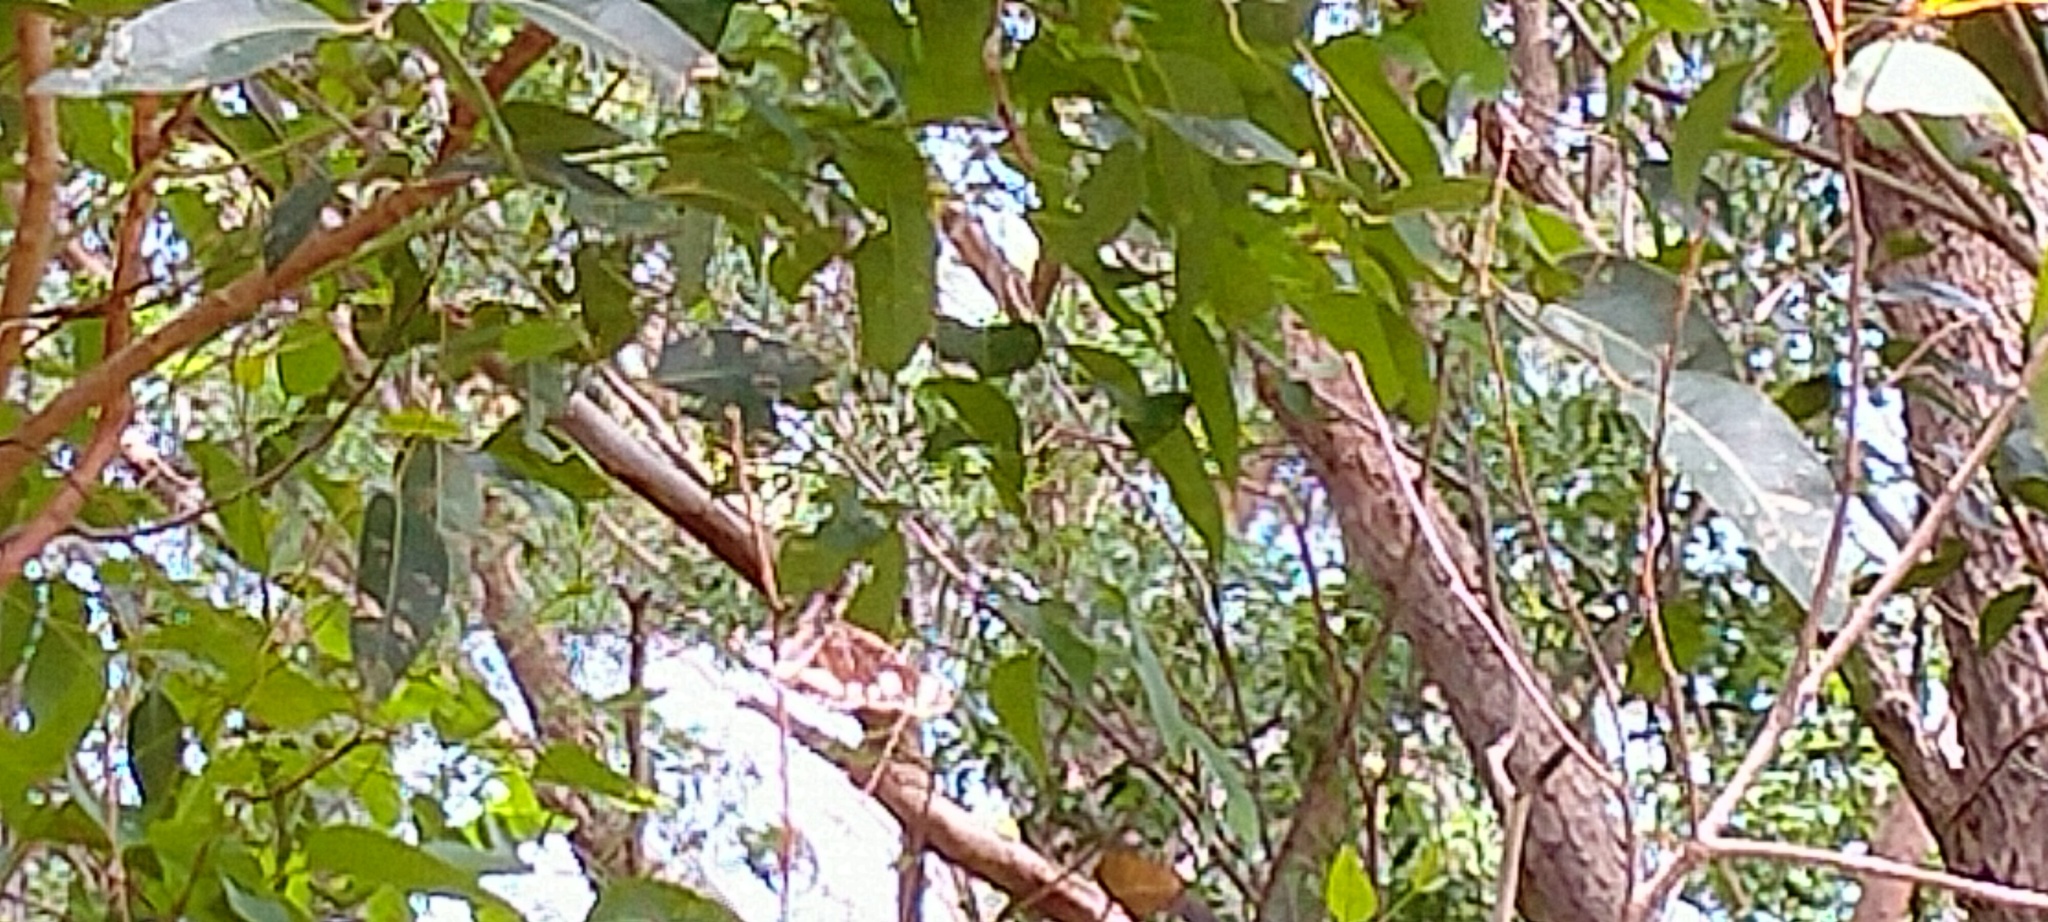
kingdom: Animalia
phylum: Arthropoda
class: Insecta
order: Lepidoptera
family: Nymphalidae
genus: Euploea
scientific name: Euploea core
